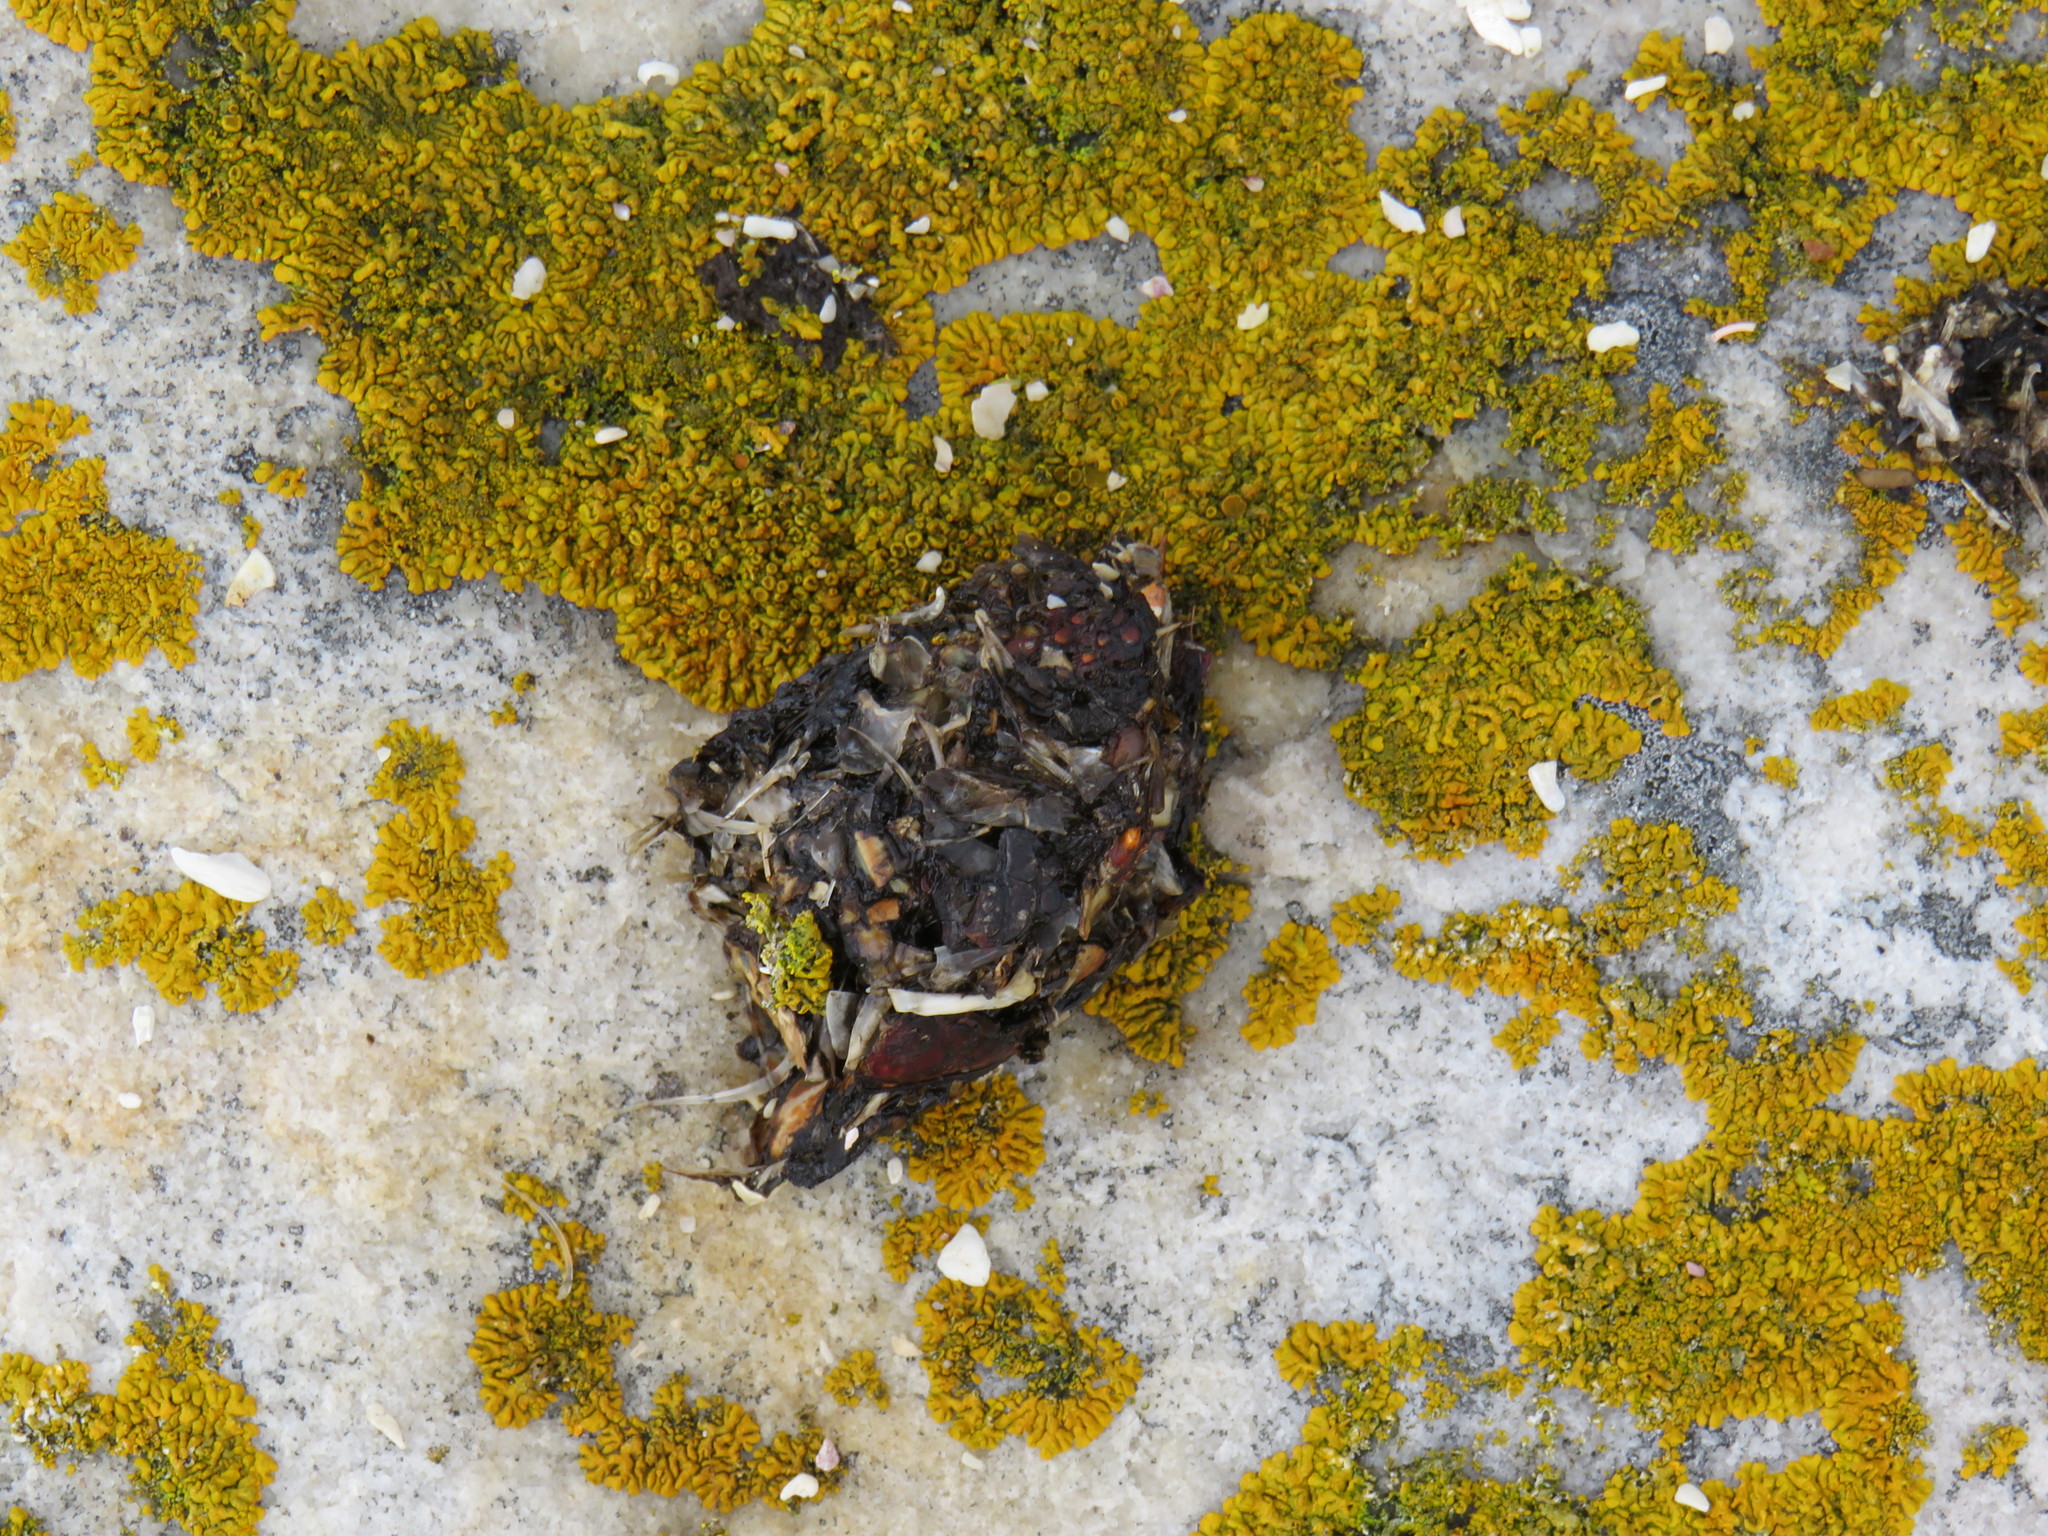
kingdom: Animalia
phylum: Chordata
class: Mammalia
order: Carnivora
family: Mustelidae
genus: Aonyx
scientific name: Aonyx capensis
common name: African clawless otter
